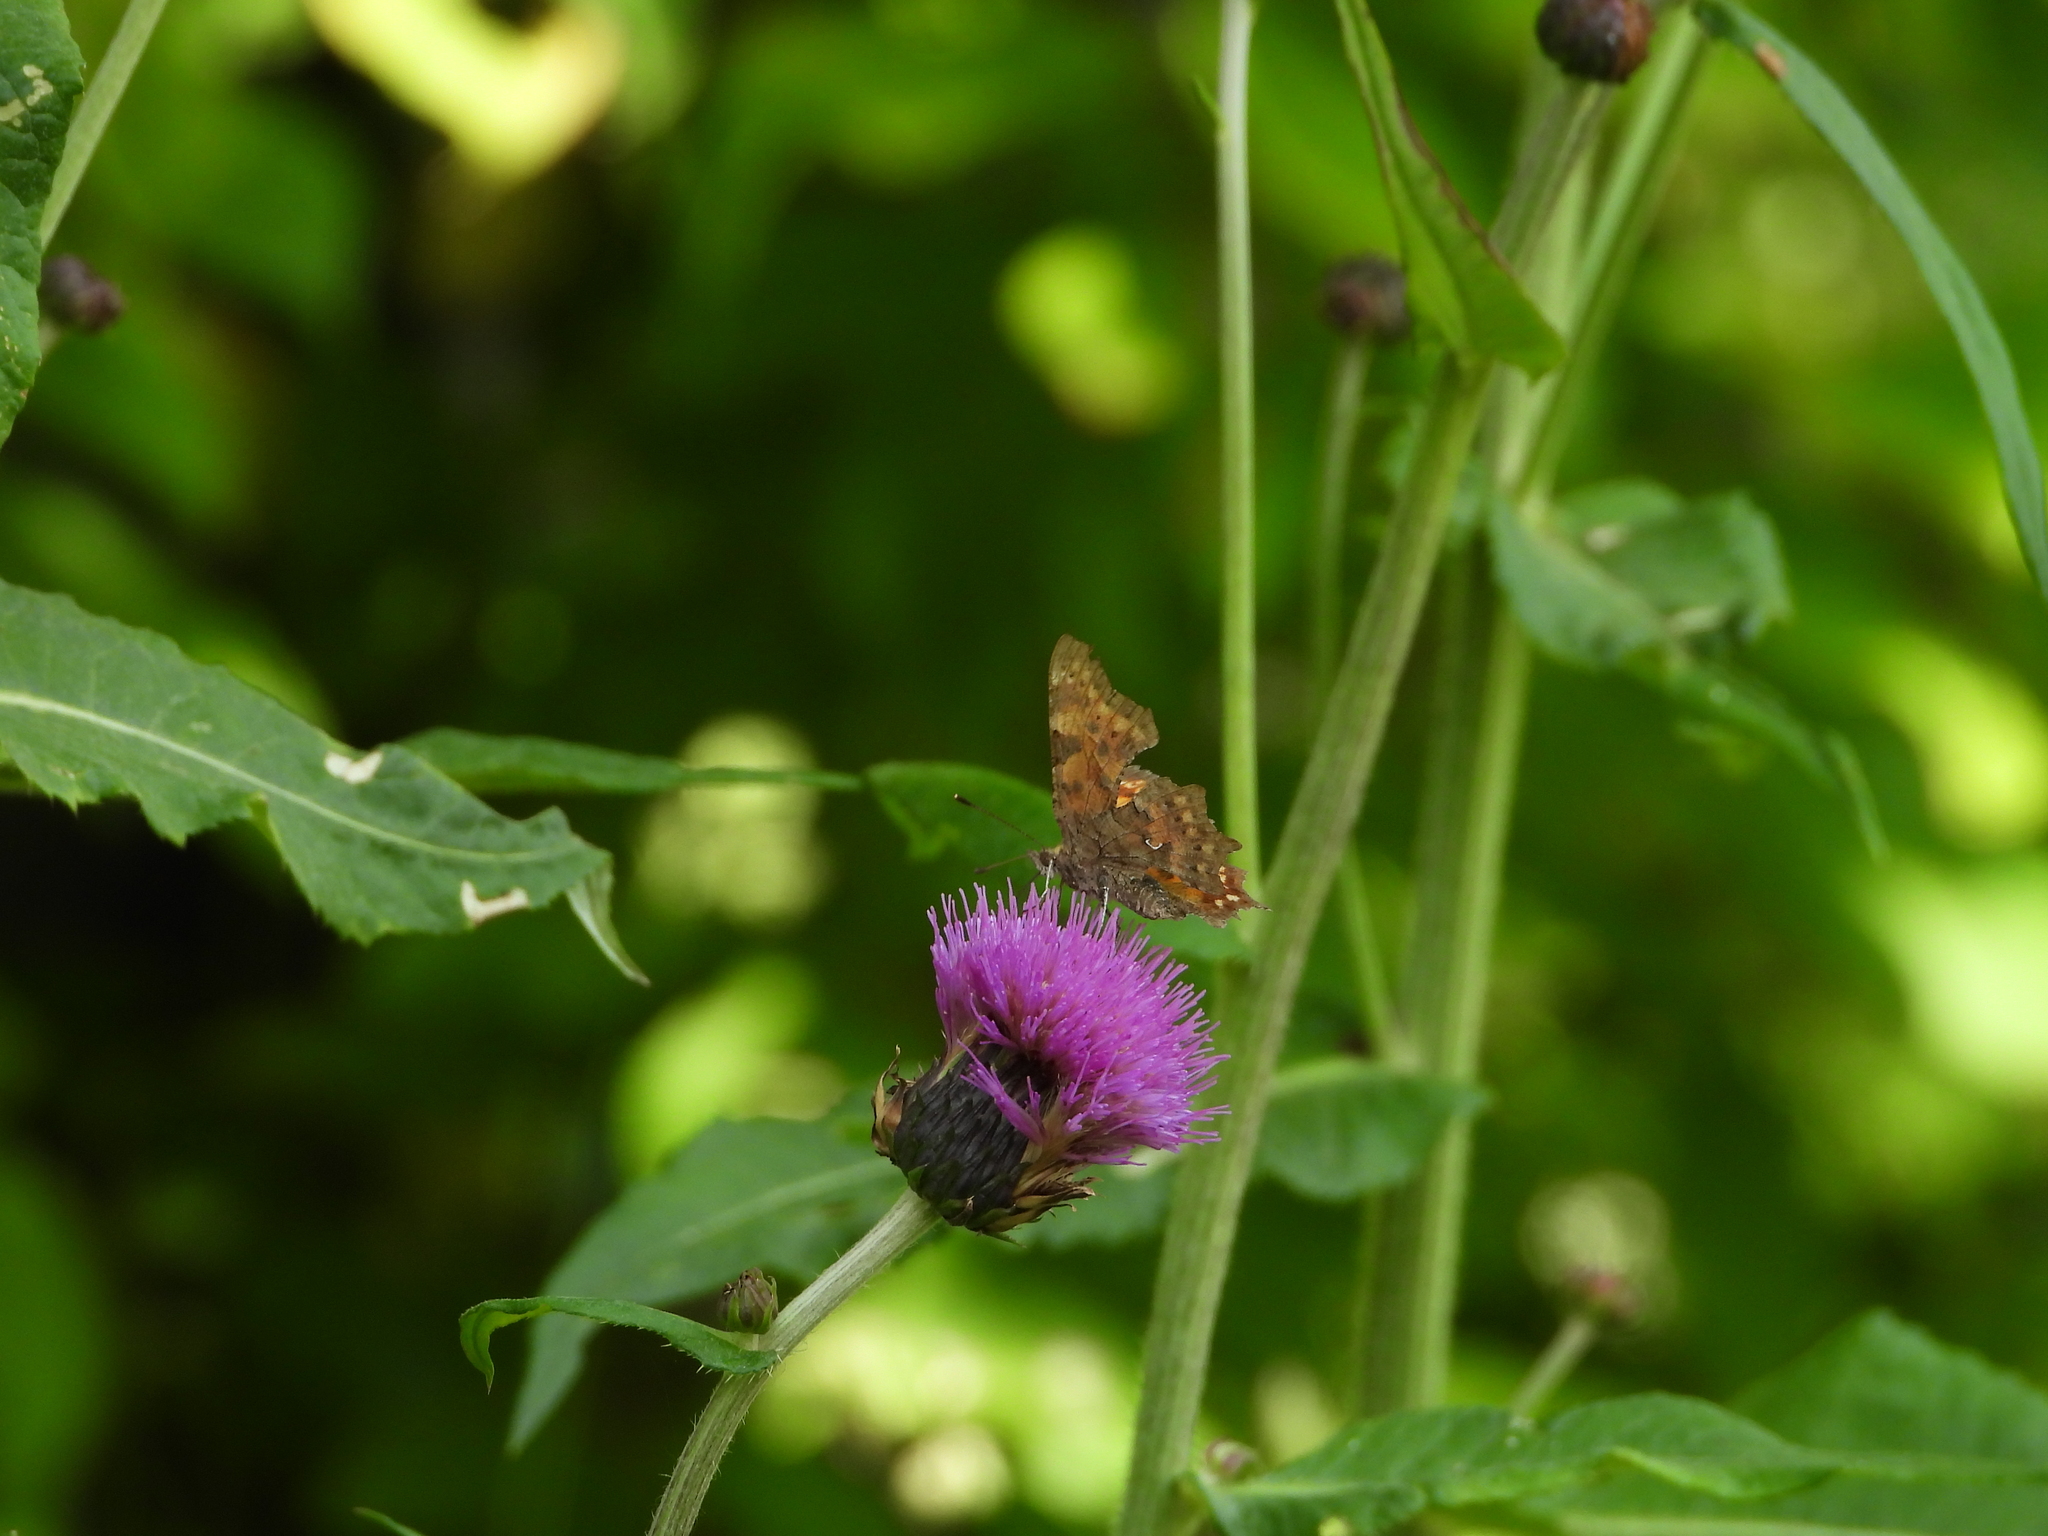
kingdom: Animalia
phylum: Arthropoda
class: Insecta
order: Lepidoptera
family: Nymphalidae
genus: Polygonia
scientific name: Polygonia c-album
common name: Comma
